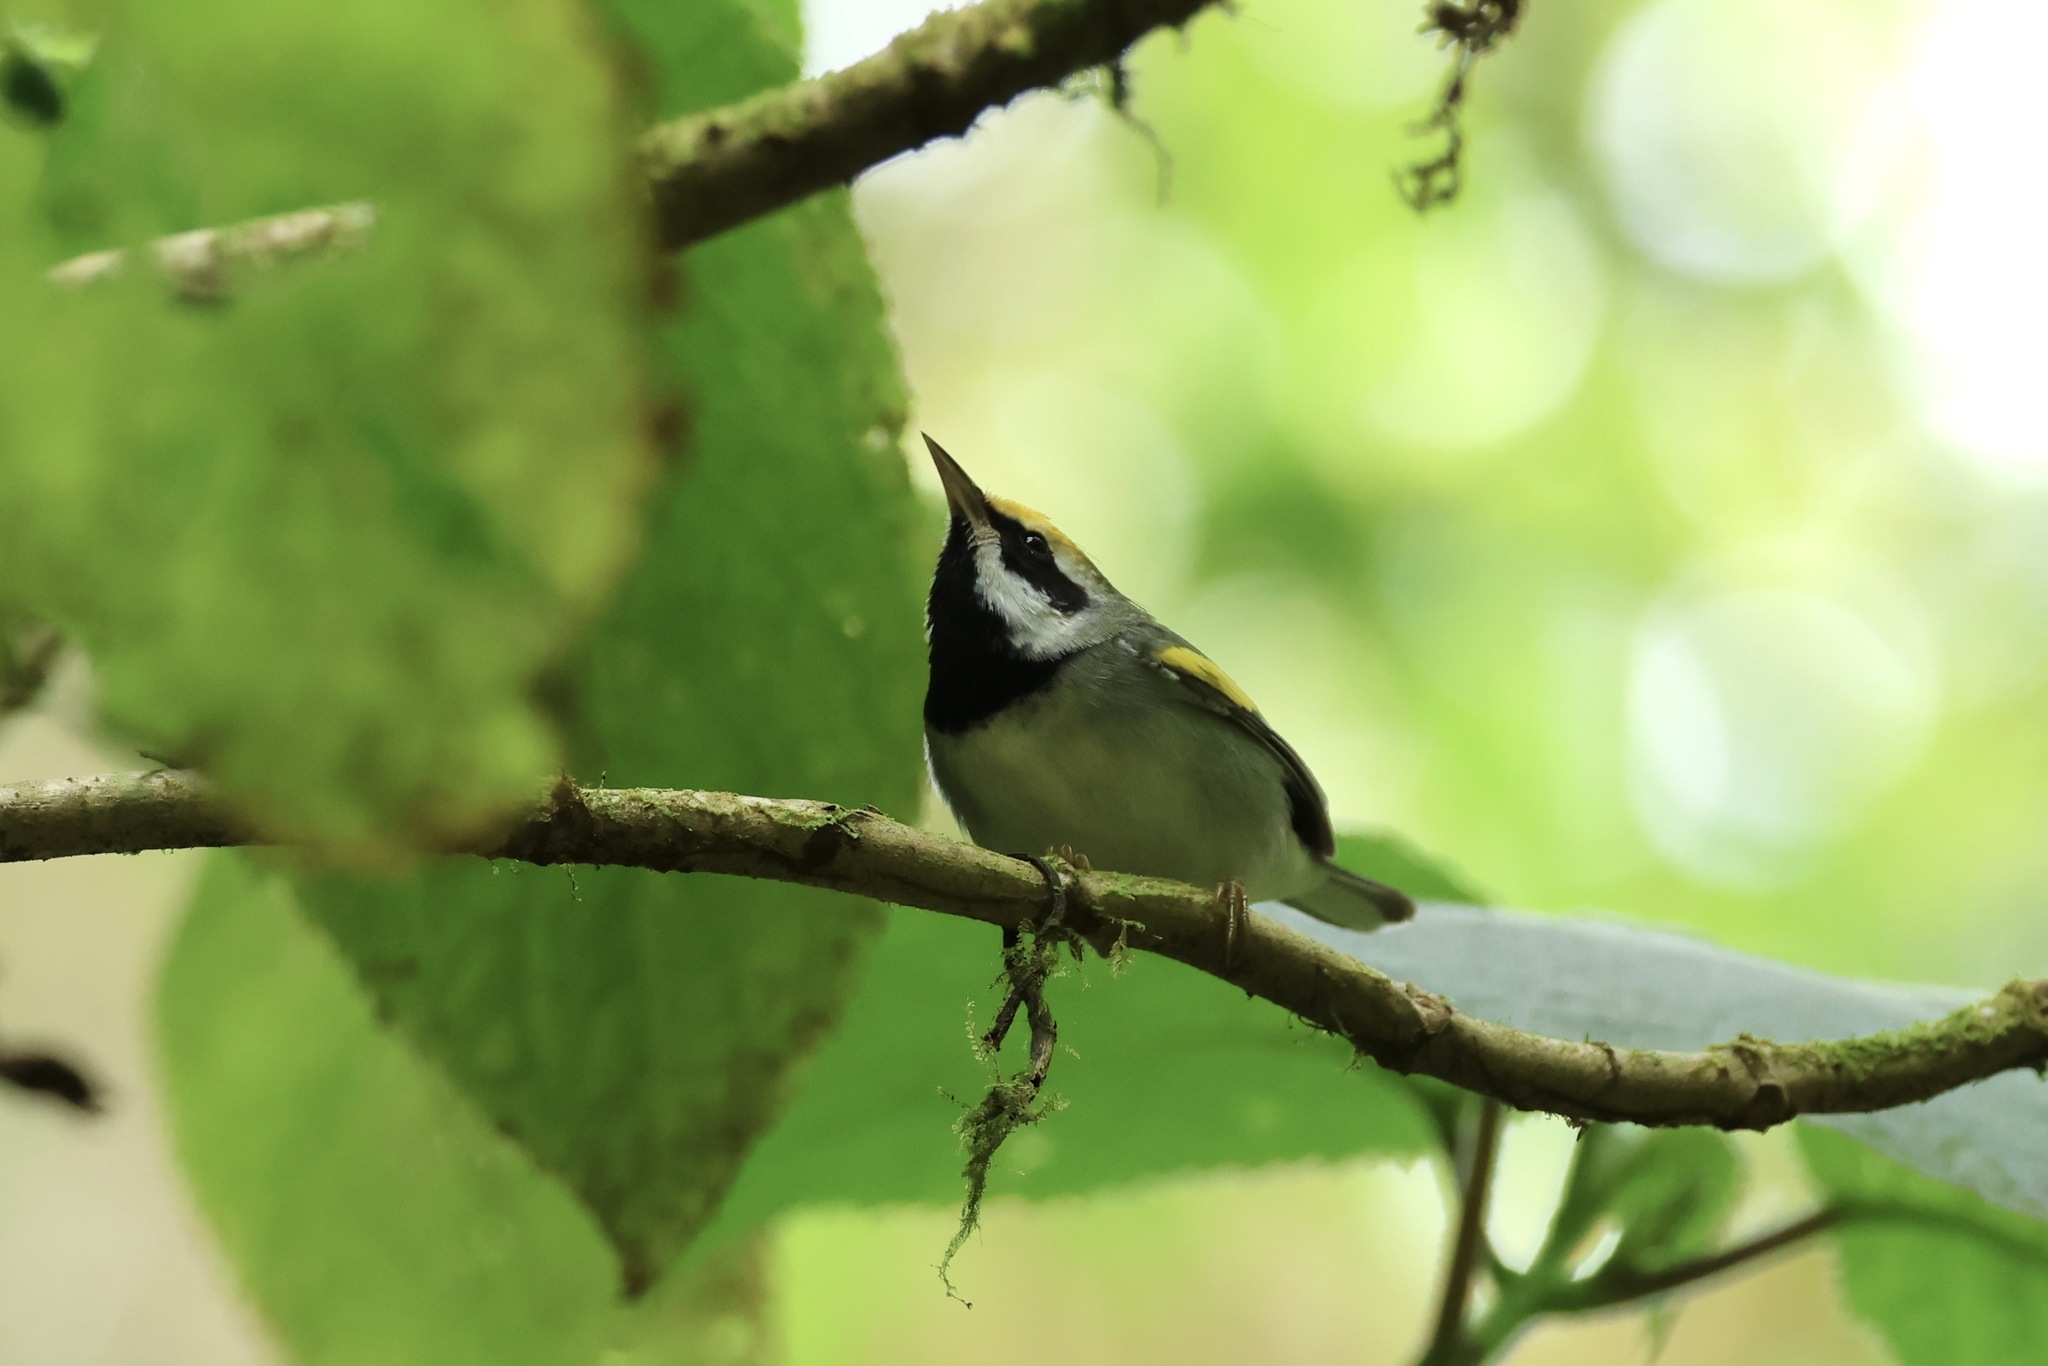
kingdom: Animalia
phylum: Chordata
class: Aves
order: Passeriformes
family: Parulidae
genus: Vermivora
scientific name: Vermivora chrysoptera
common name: Golden-winged warbler
